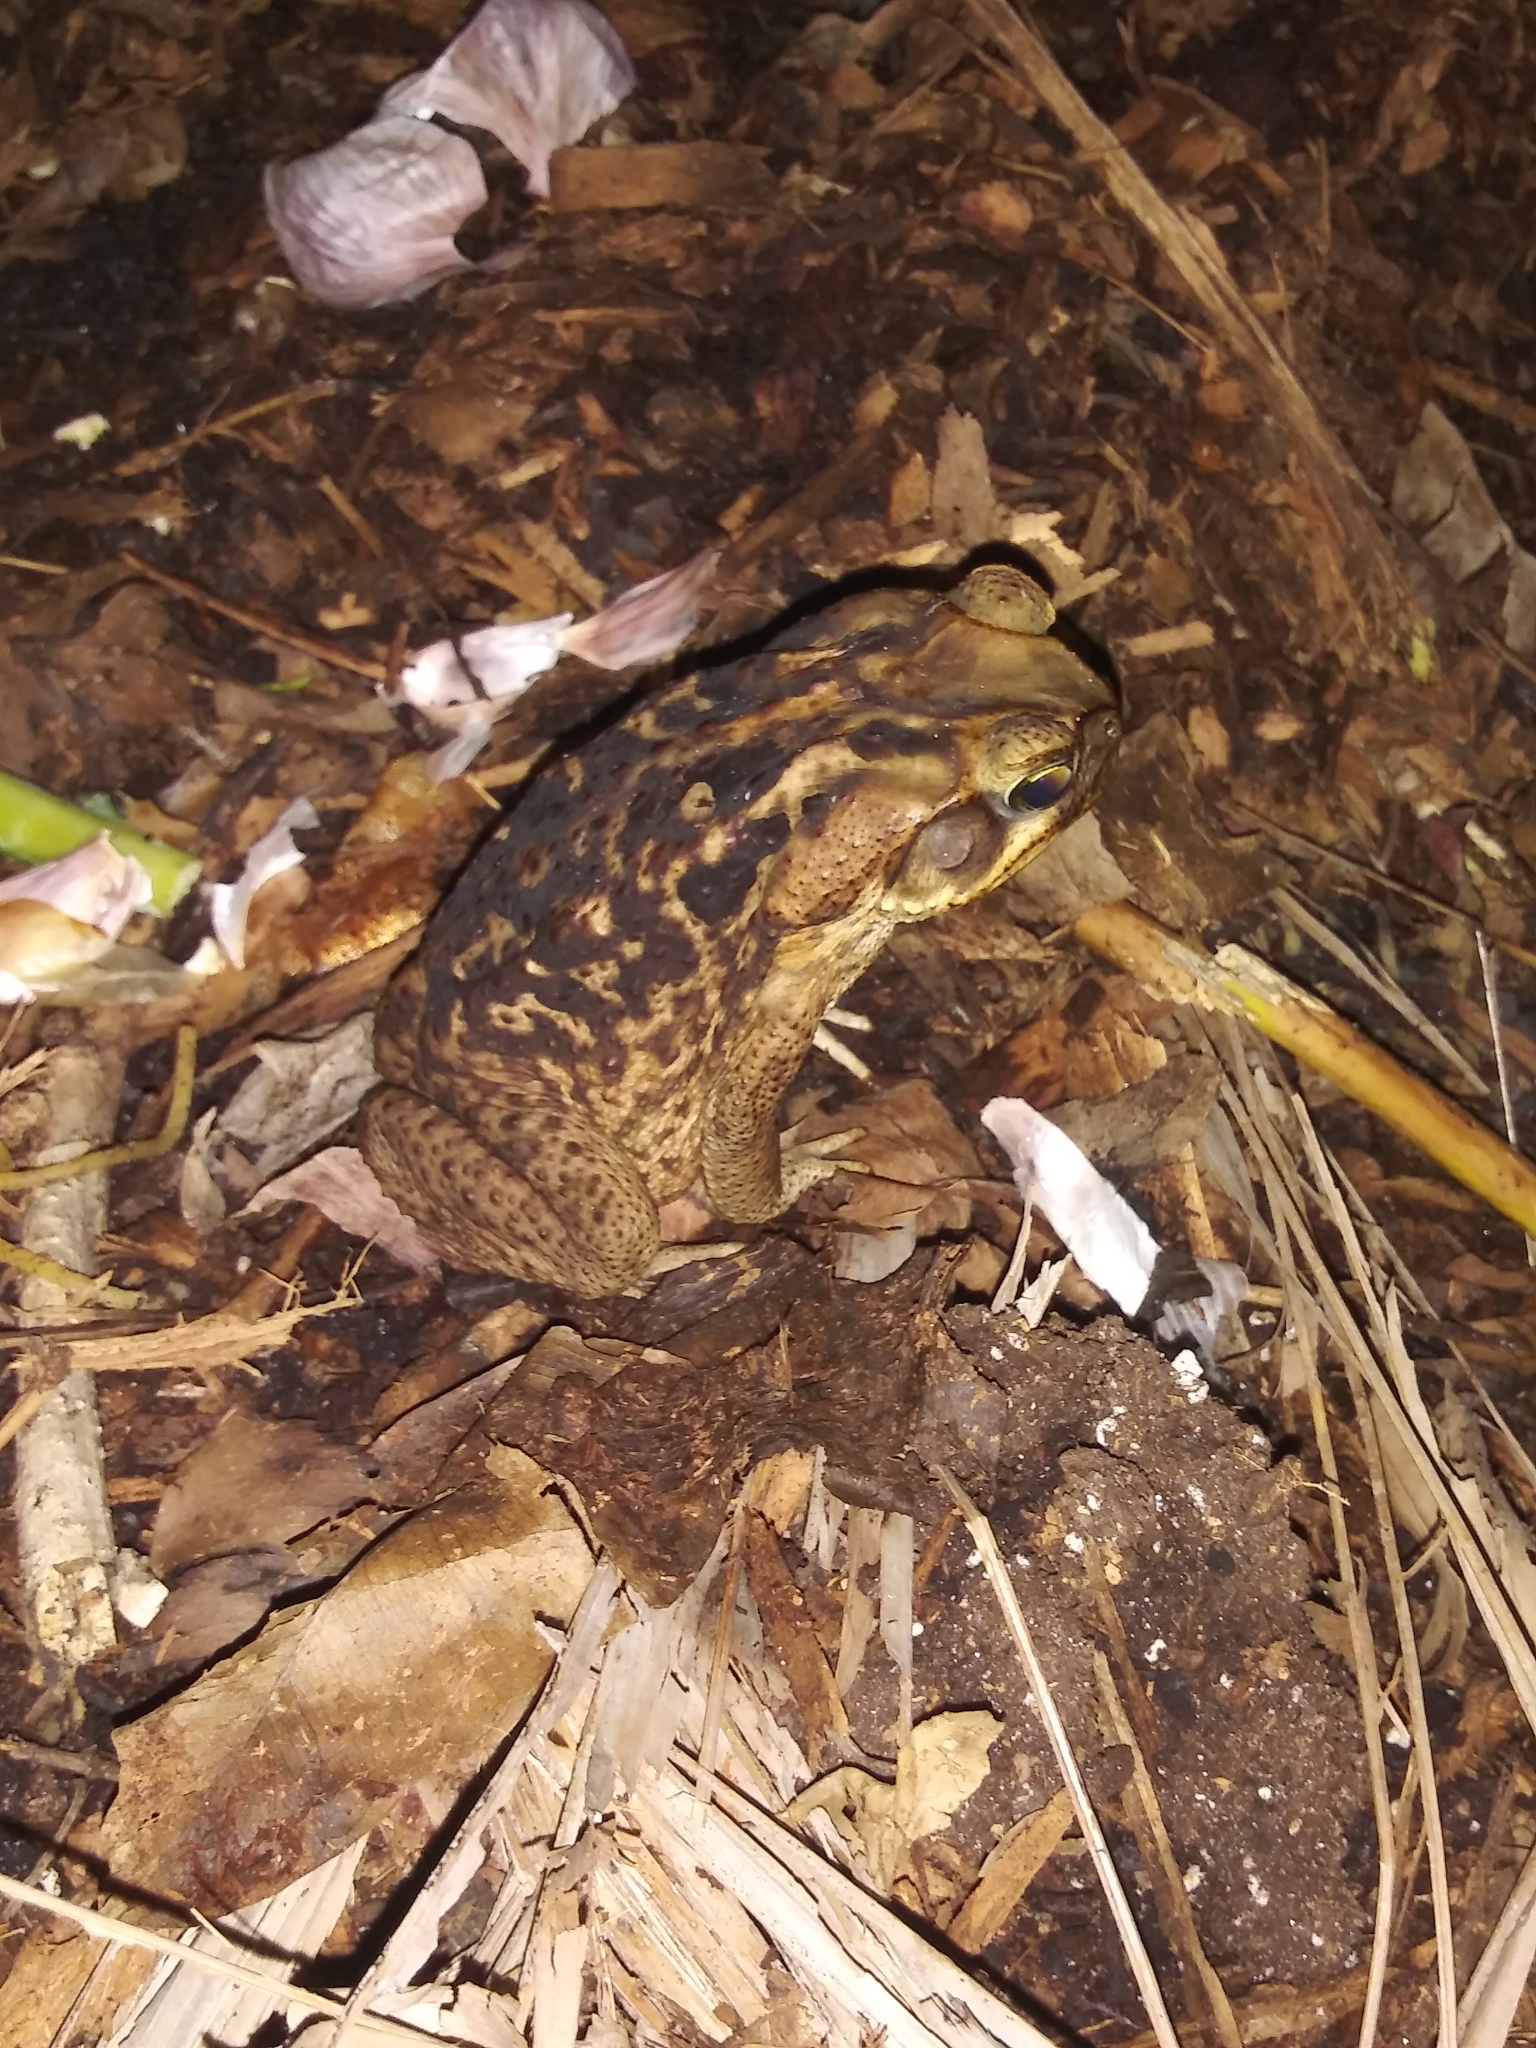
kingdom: Animalia
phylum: Chordata
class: Amphibia
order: Anura
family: Bufonidae
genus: Rhinella
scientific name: Rhinella marina
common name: Cane toad
